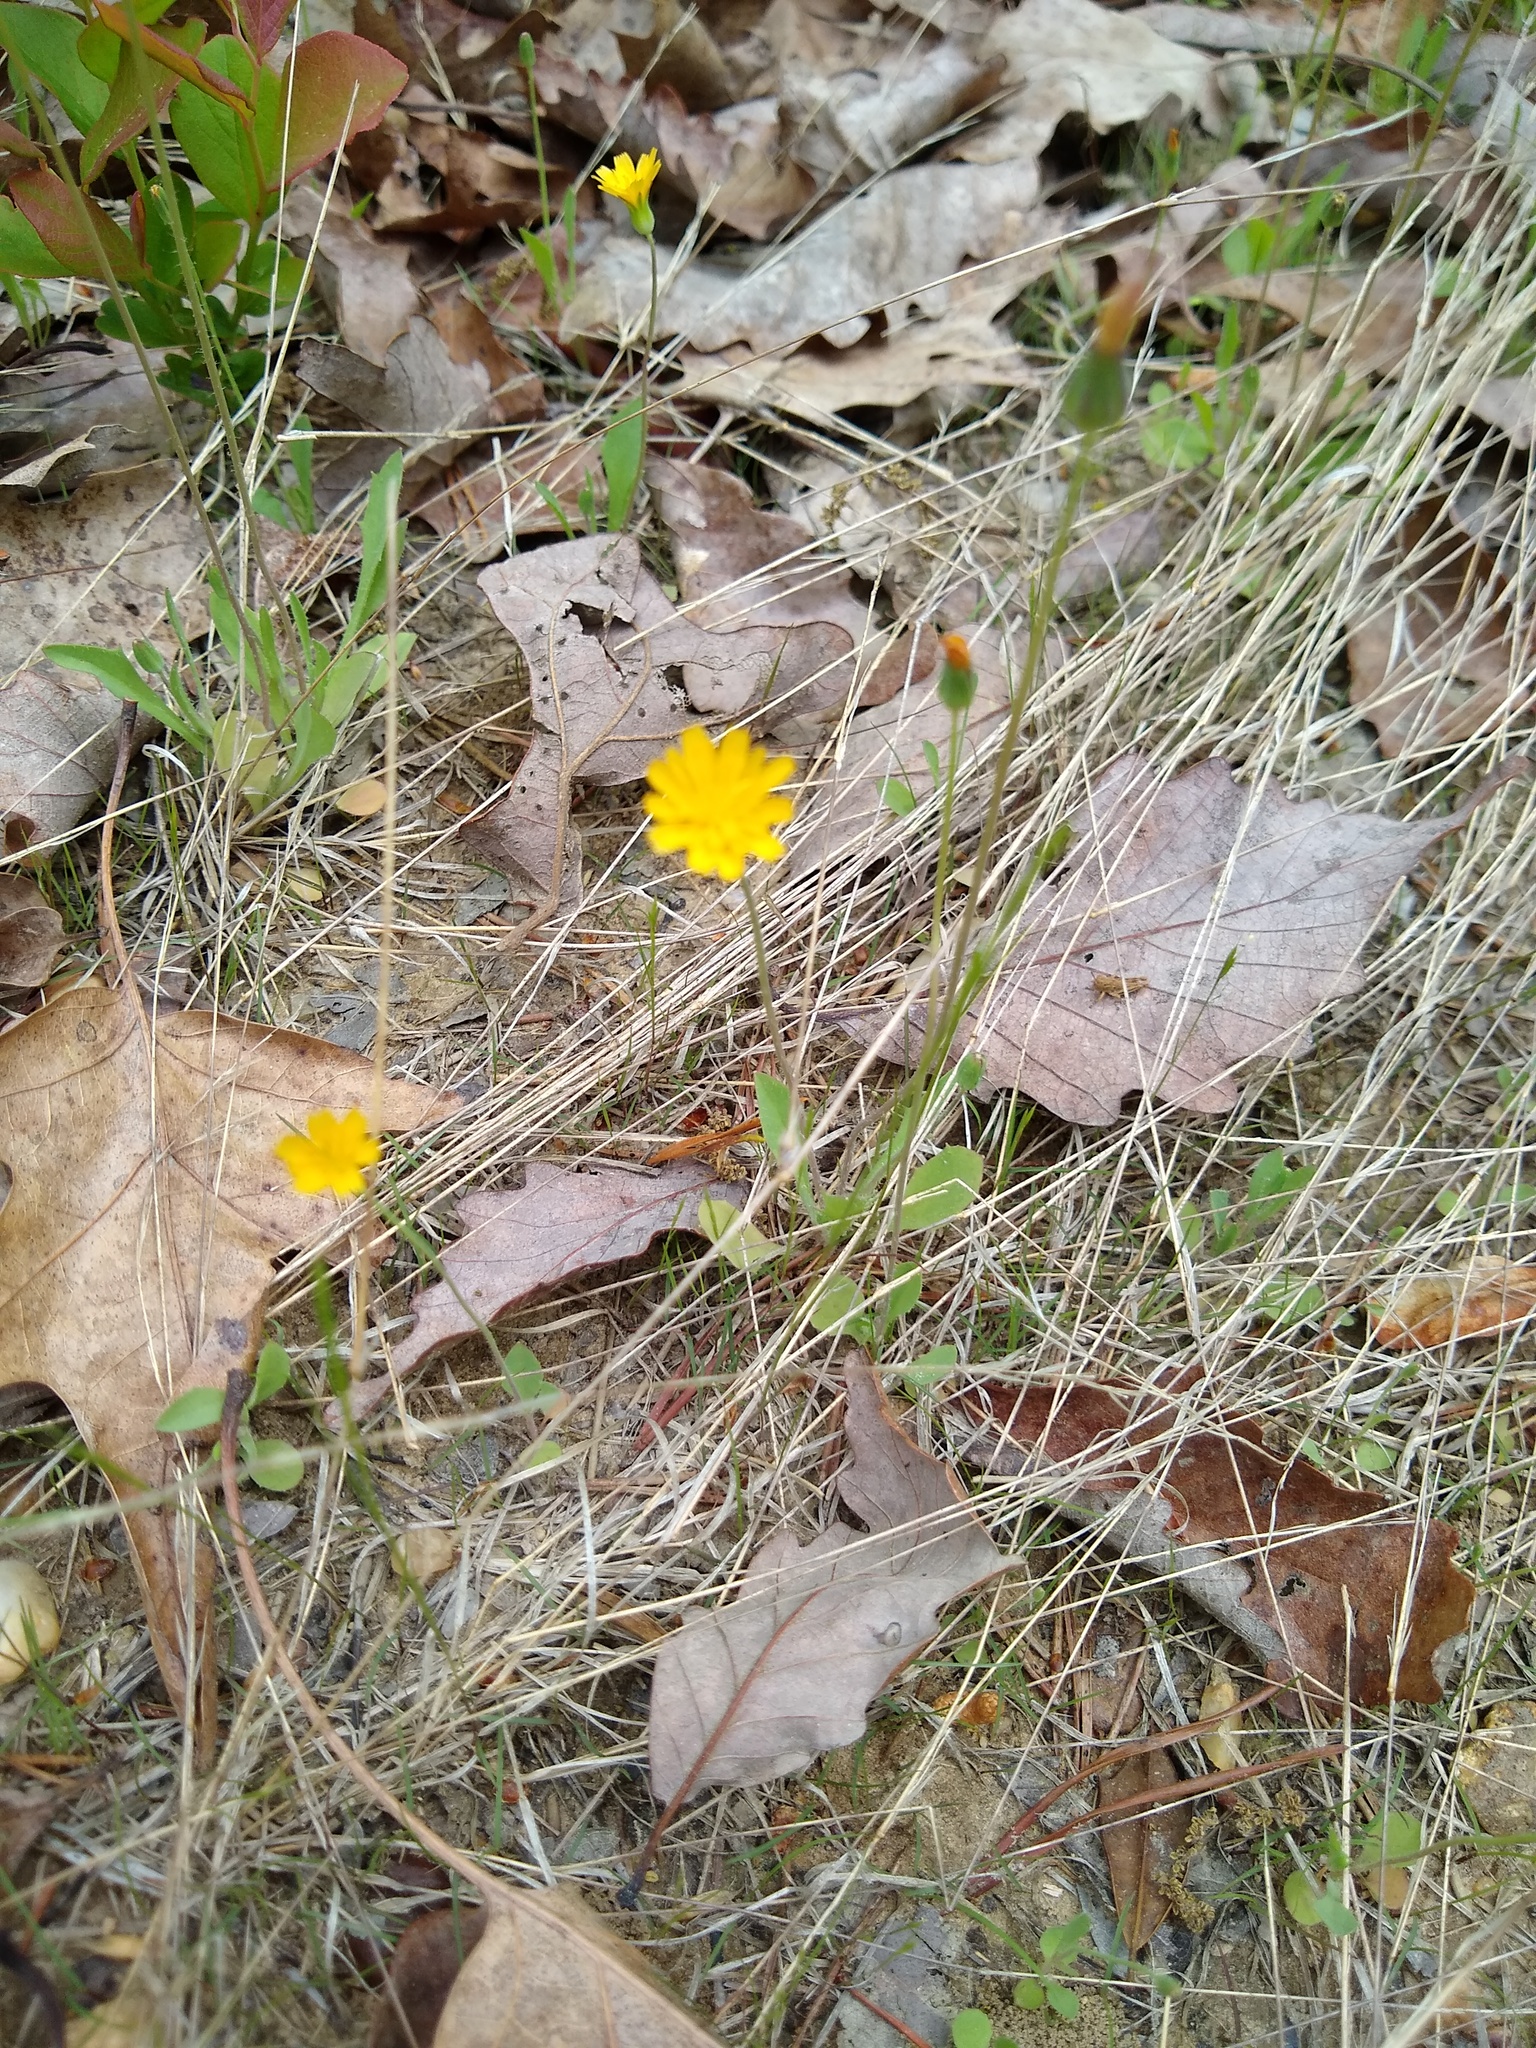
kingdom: Plantae
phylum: Tracheophyta
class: Magnoliopsida
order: Asterales
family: Asteraceae
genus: Krigia
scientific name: Krigia virginica
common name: Virginia dwarf-dandelion
